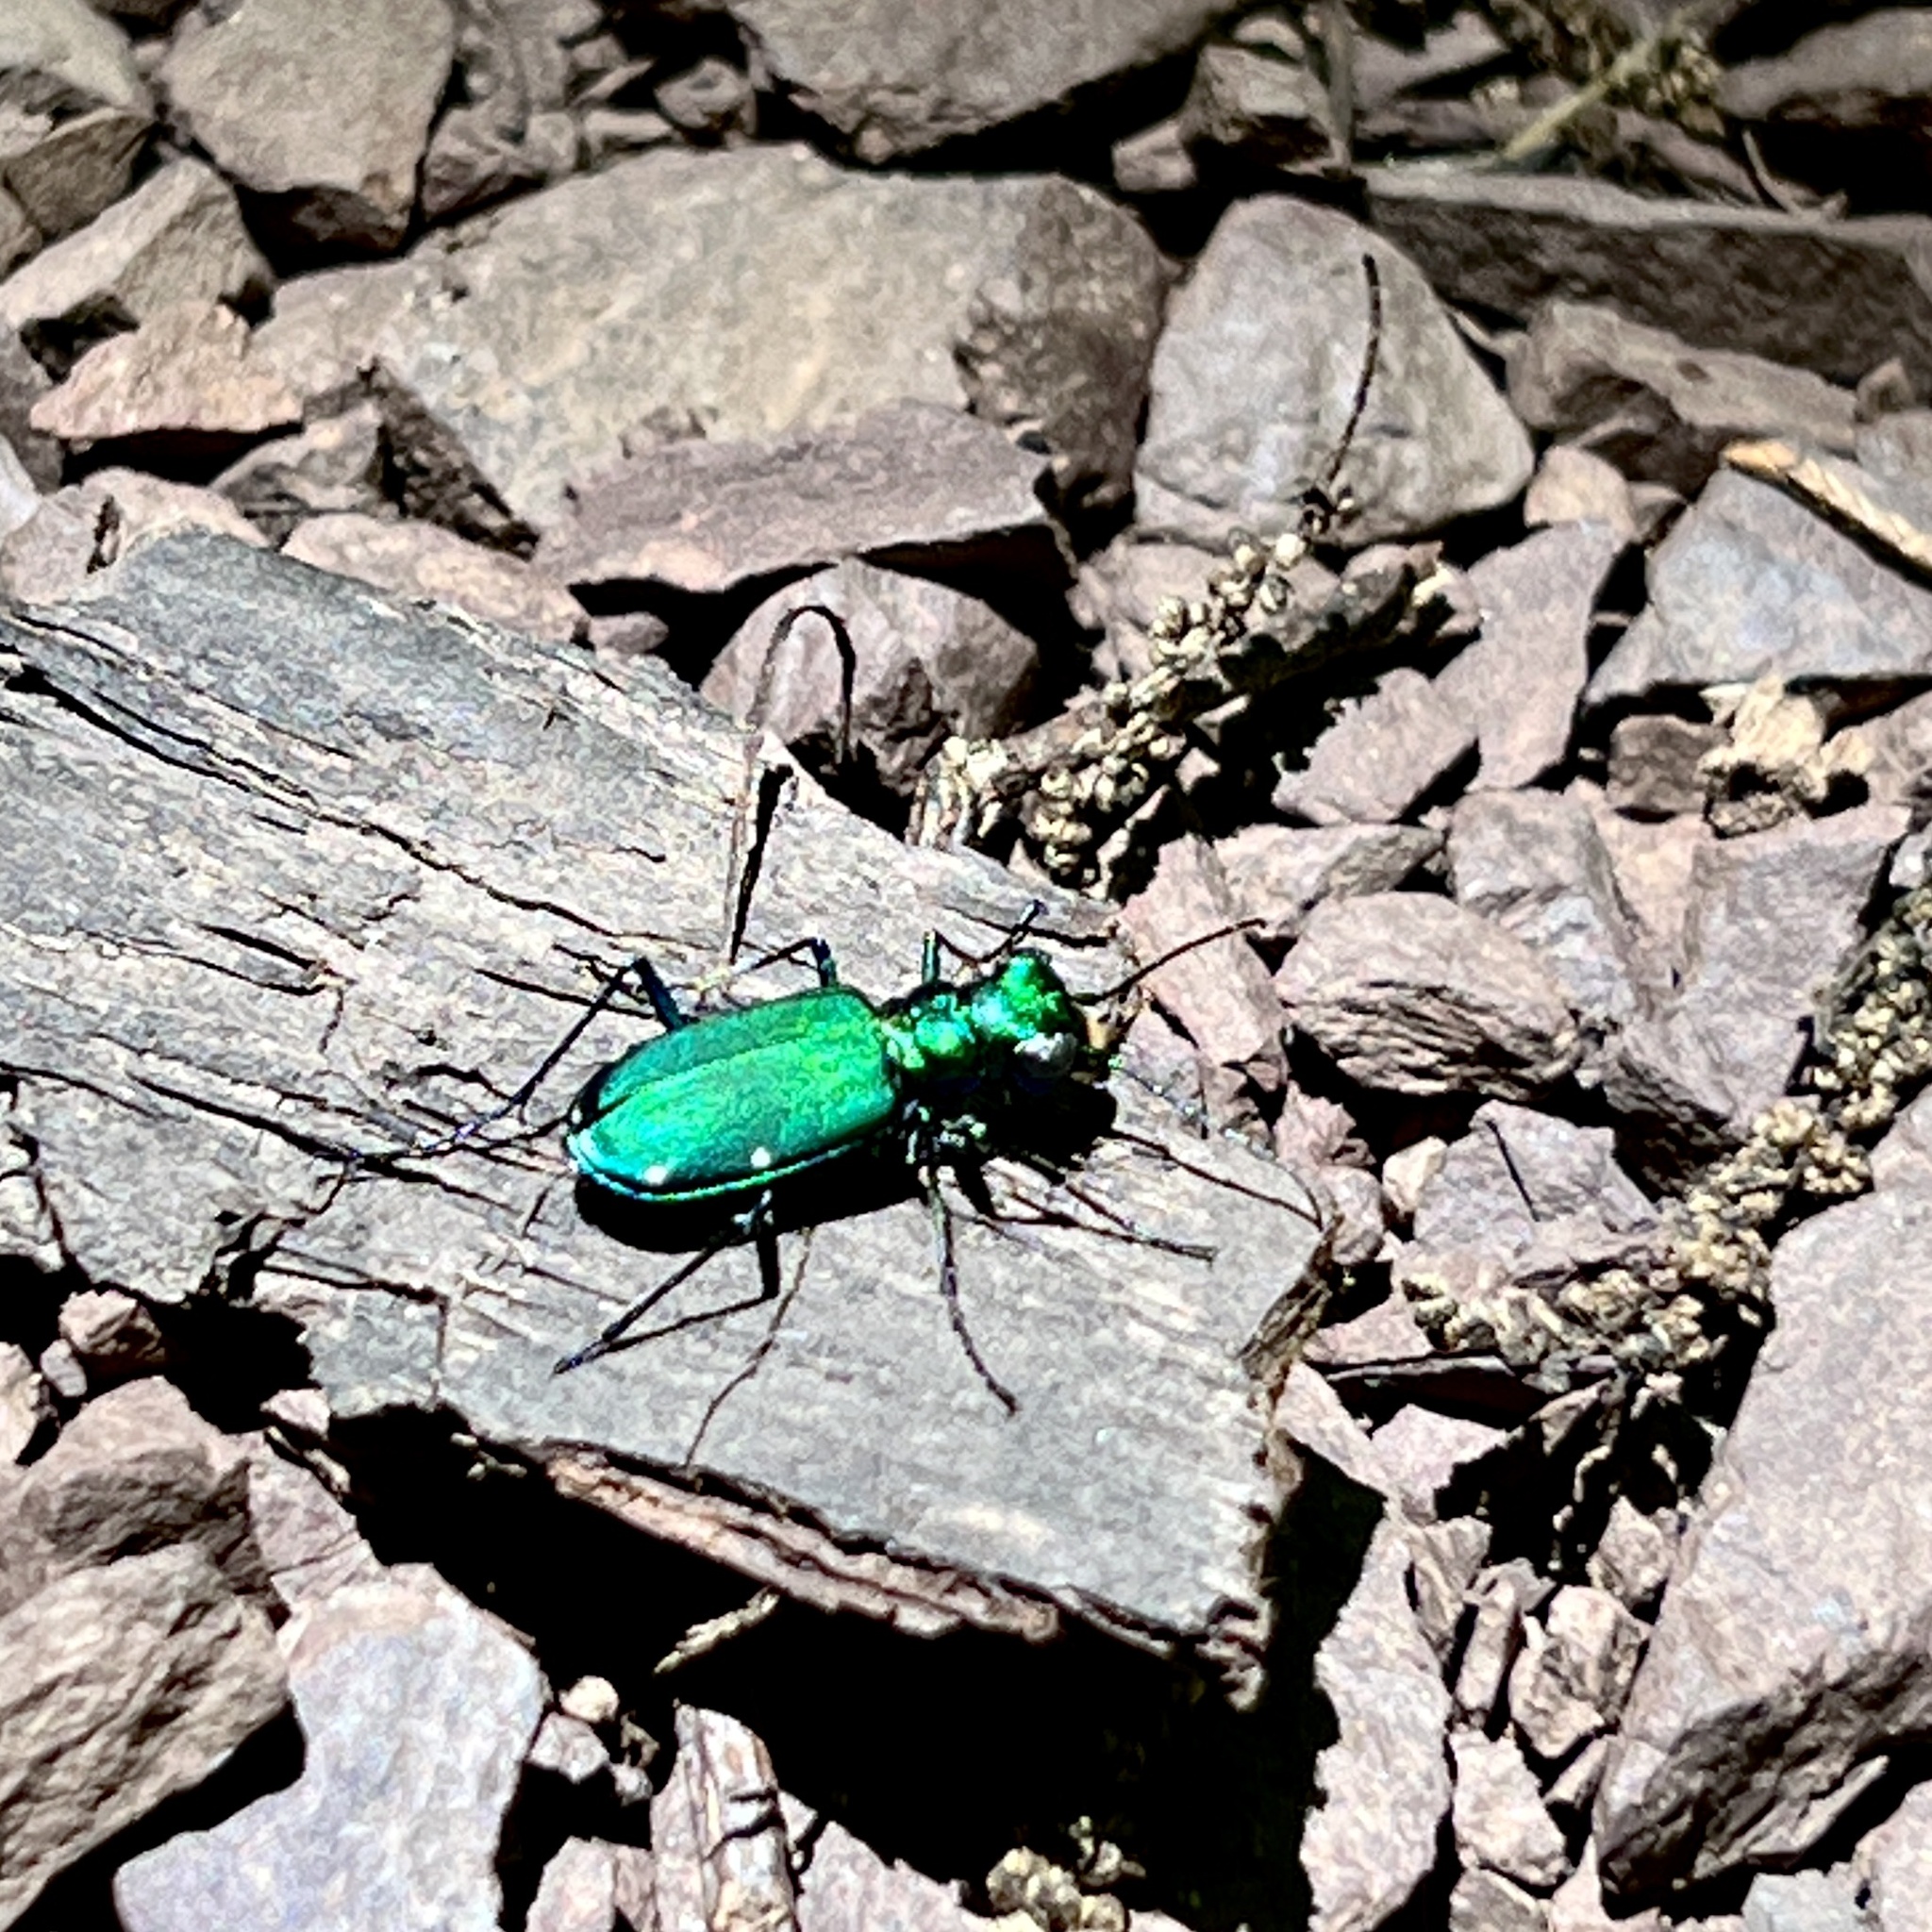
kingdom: Animalia
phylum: Arthropoda
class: Insecta
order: Coleoptera
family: Carabidae
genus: Cicindela
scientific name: Cicindela sexguttata
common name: Six-spotted tiger beetle
